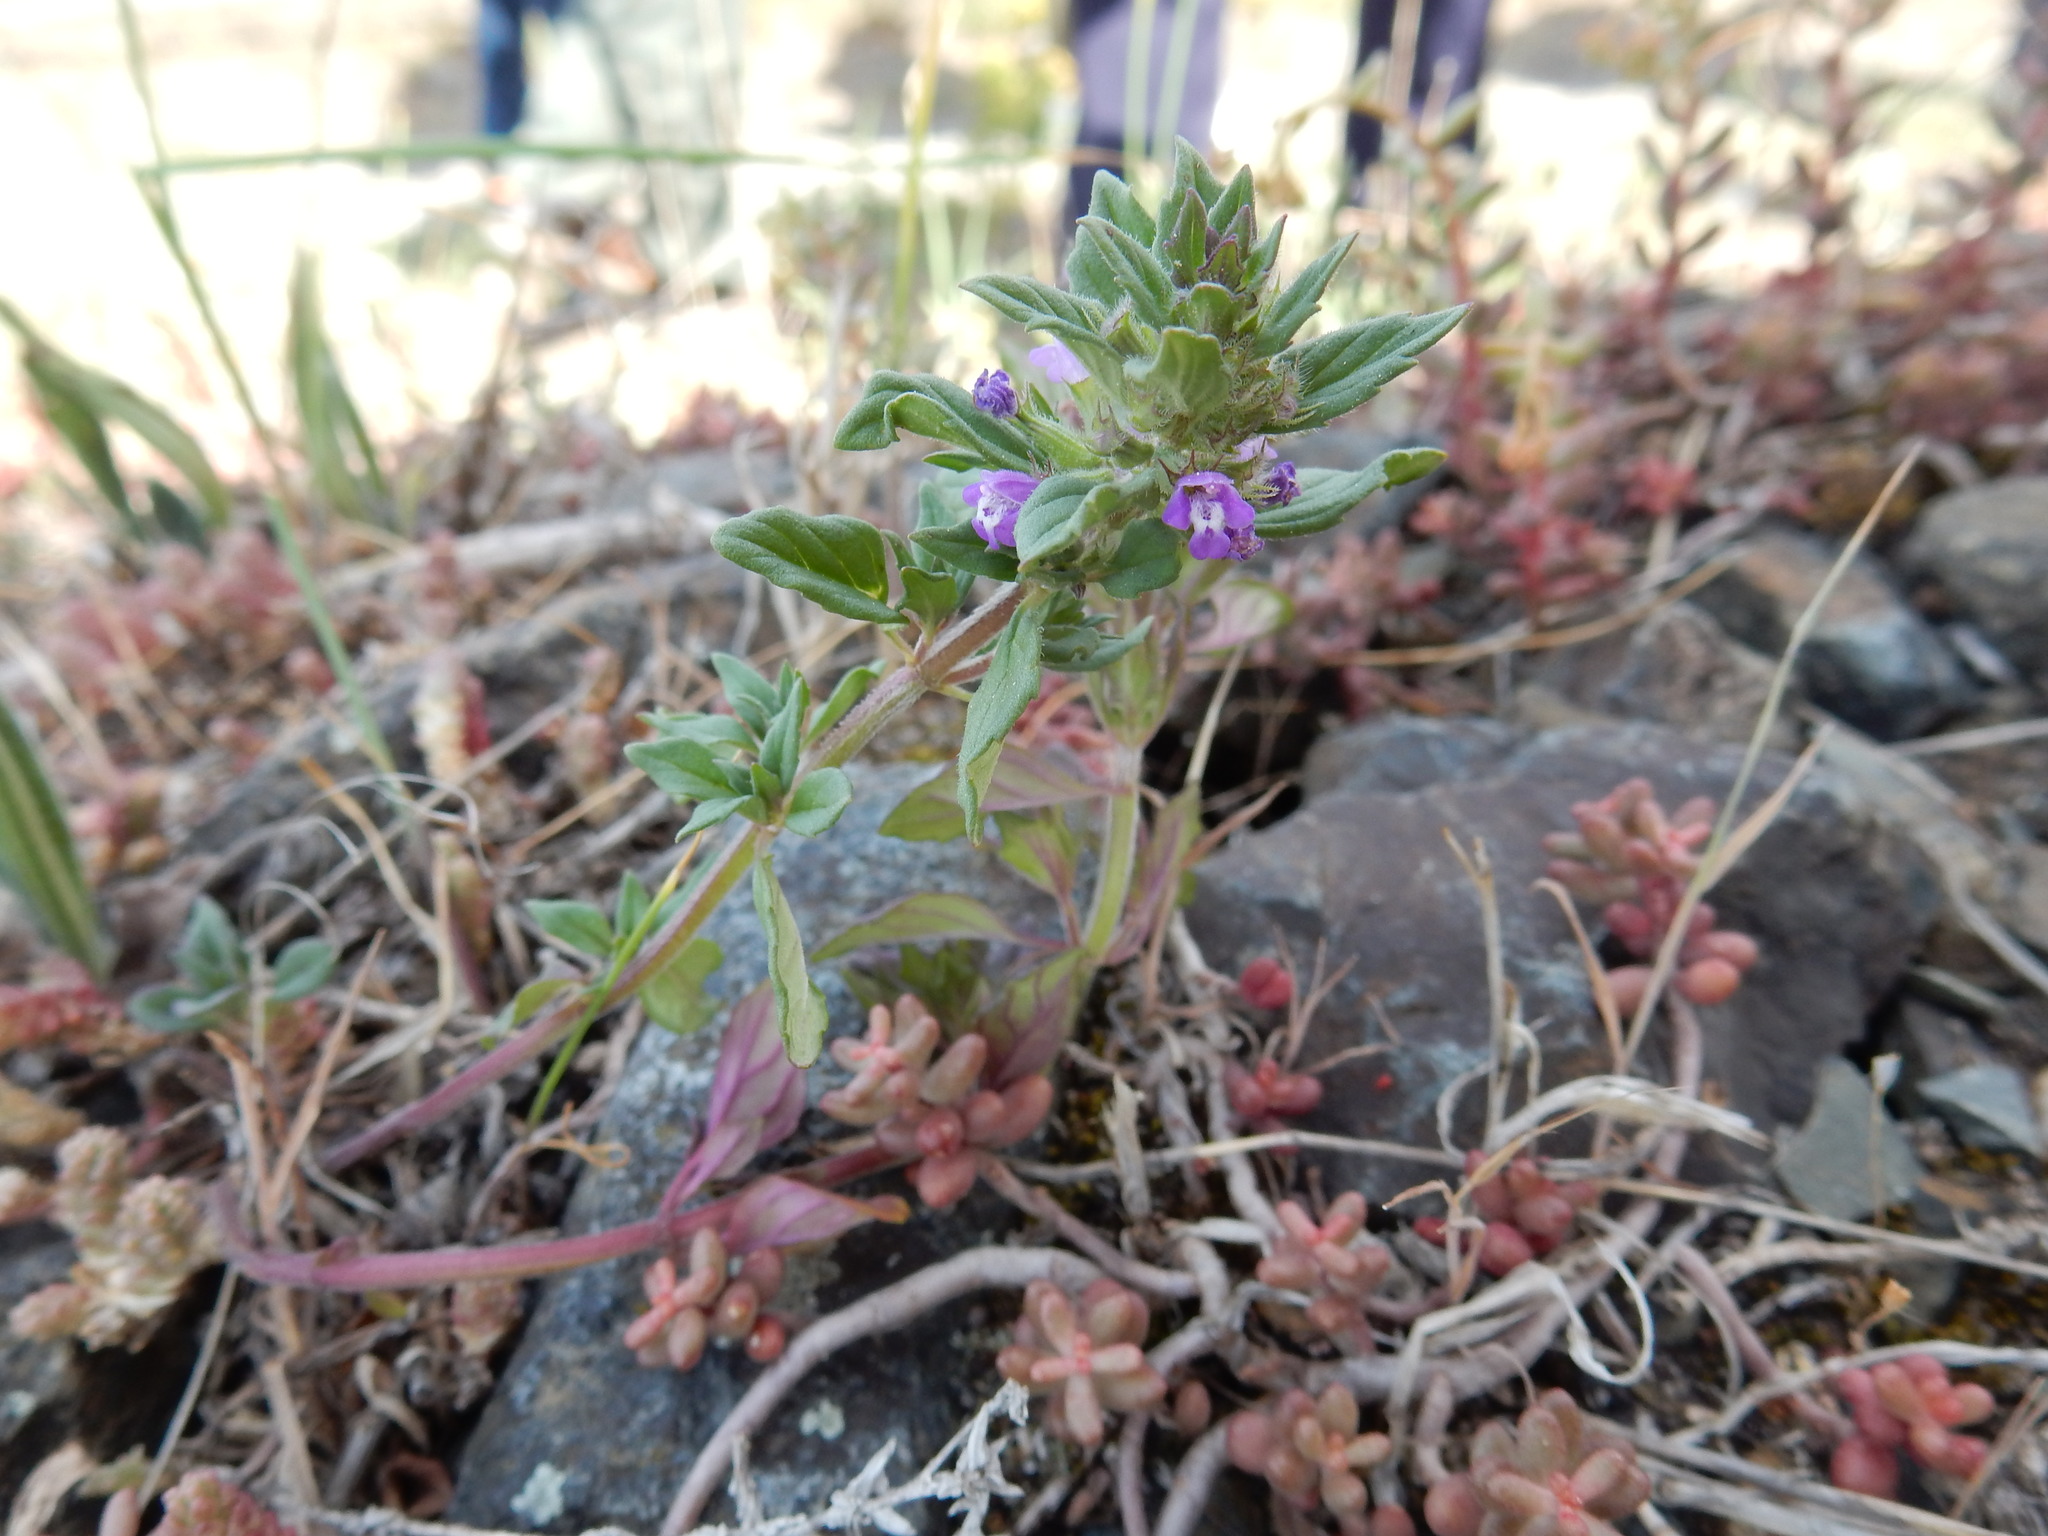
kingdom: Plantae
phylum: Tracheophyta
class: Magnoliopsida
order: Lamiales
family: Lamiaceae
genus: Clinopodium
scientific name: Clinopodium acinos
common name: Basil thyme
